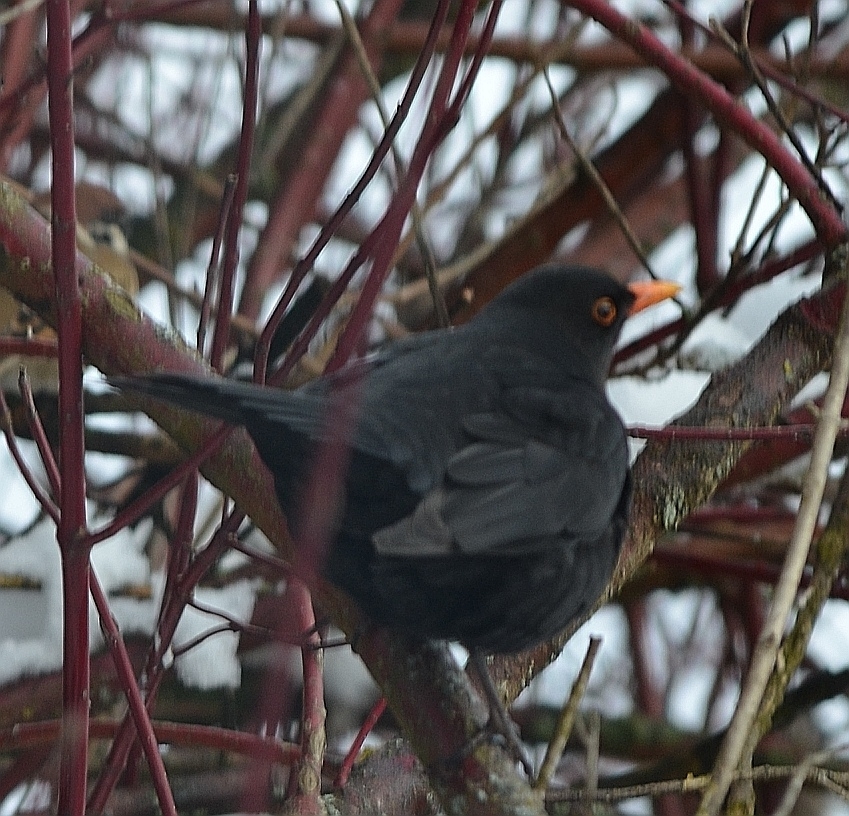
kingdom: Animalia
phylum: Chordata
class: Aves
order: Passeriformes
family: Turdidae
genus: Turdus
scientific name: Turdus merula
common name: Common blackbird
